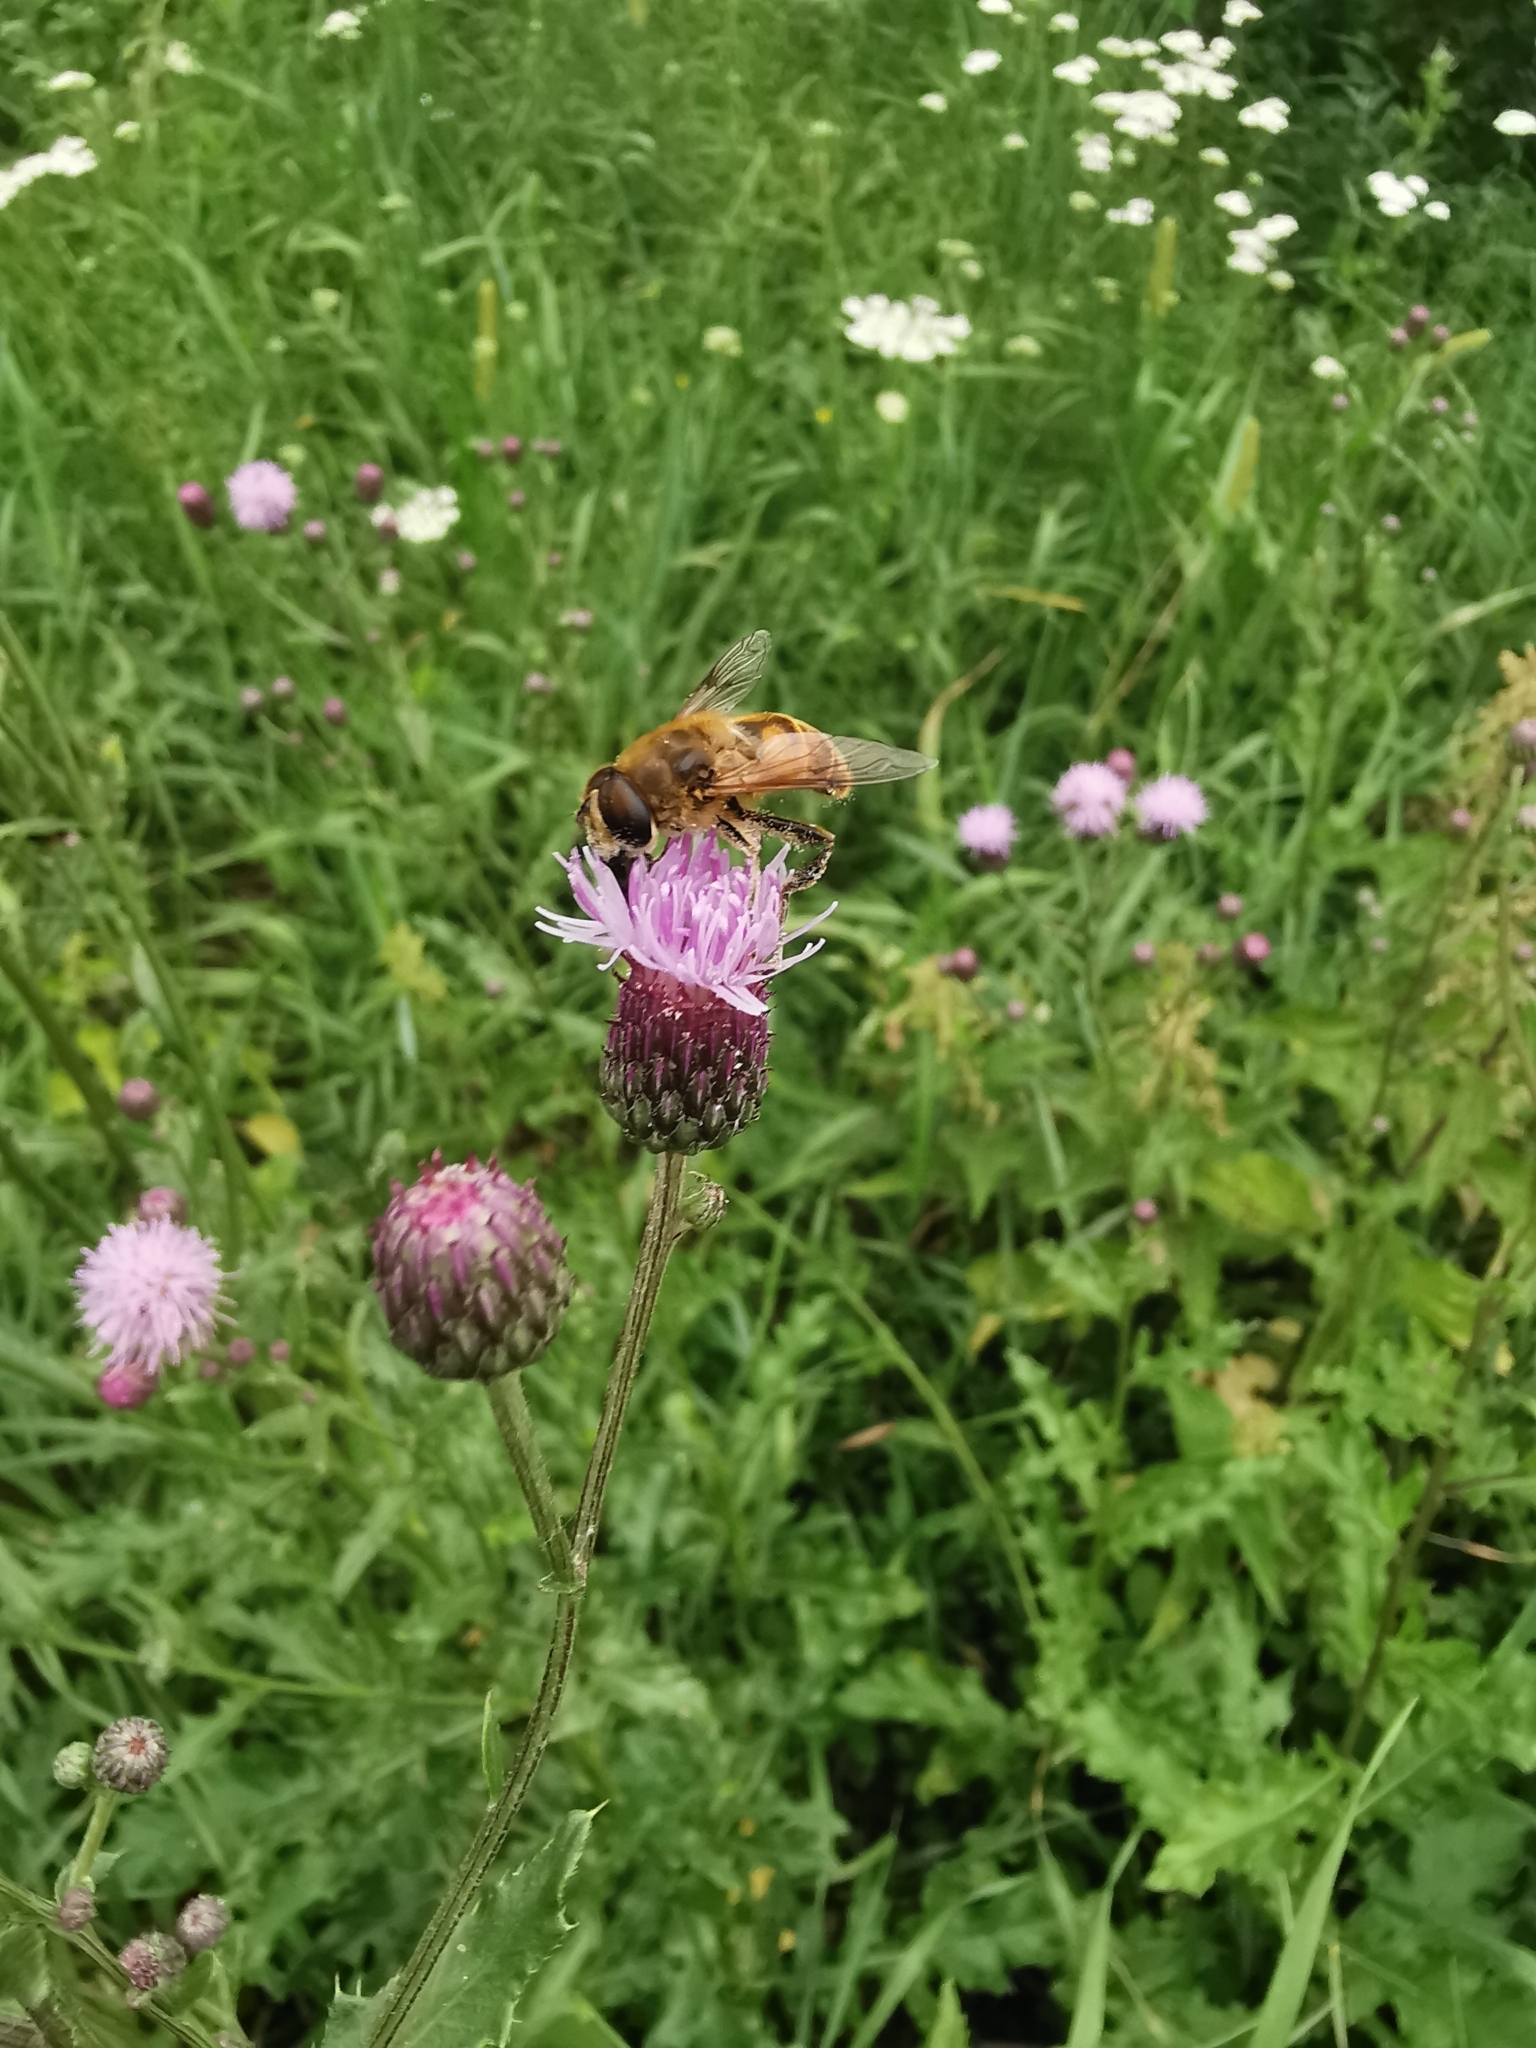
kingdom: Animalia
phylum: Arthropoda
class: Insecta
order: Diptera
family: Syrphidae
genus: Eristalis
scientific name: Eristalis tenax
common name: Drone fly
